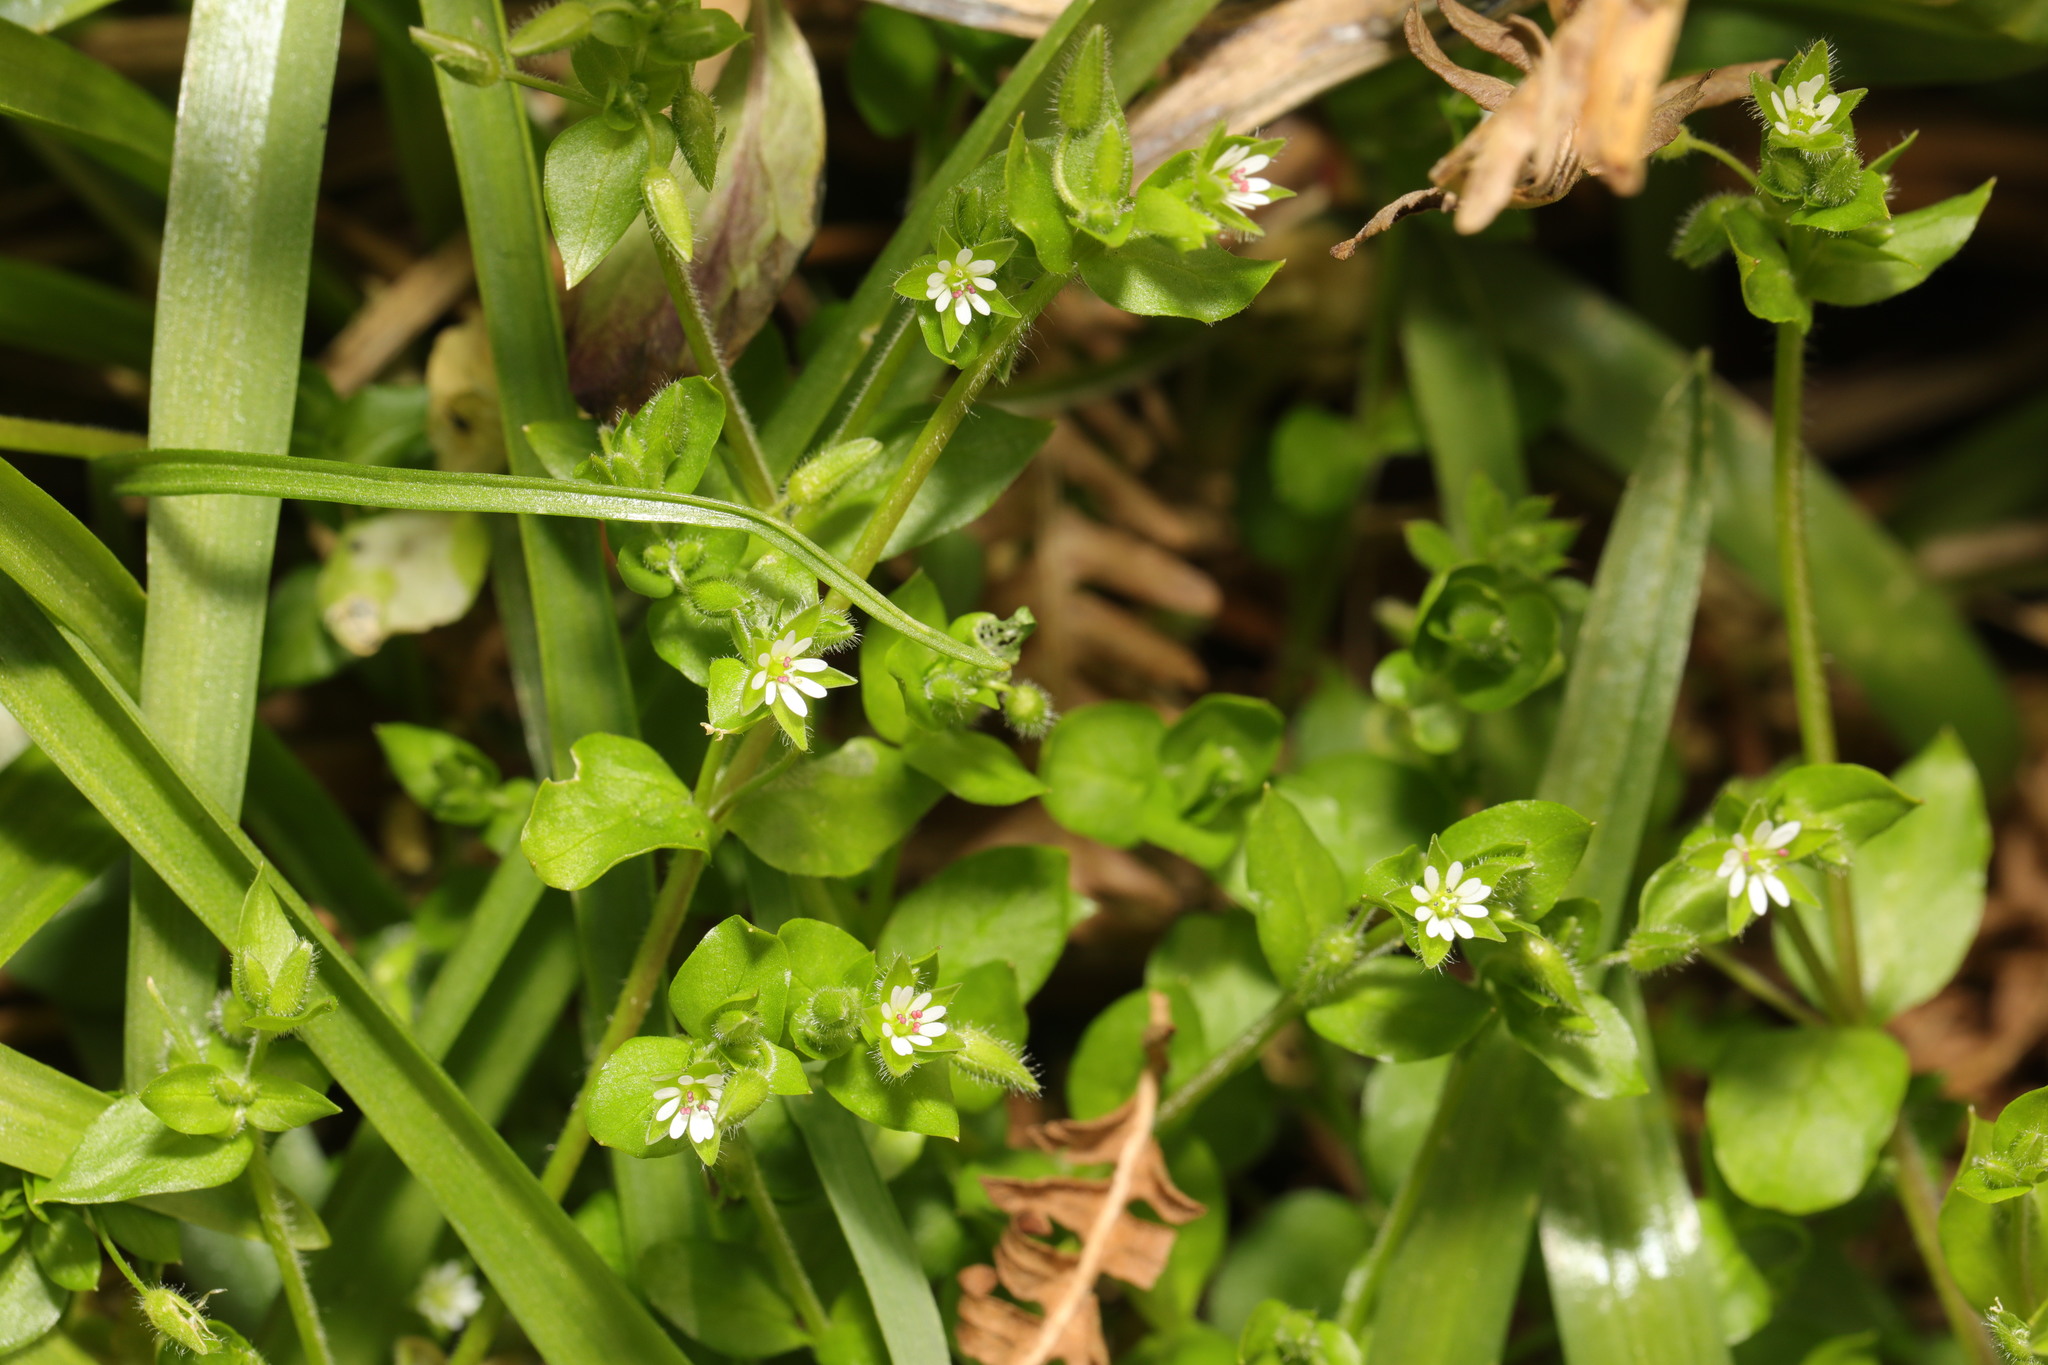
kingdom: Plantae
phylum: Tracheophyta
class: Magnoliopsida
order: Caryophyllales
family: Caryophyllaceae
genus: Stellaria
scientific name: Stellaria media
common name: Common chickweed
